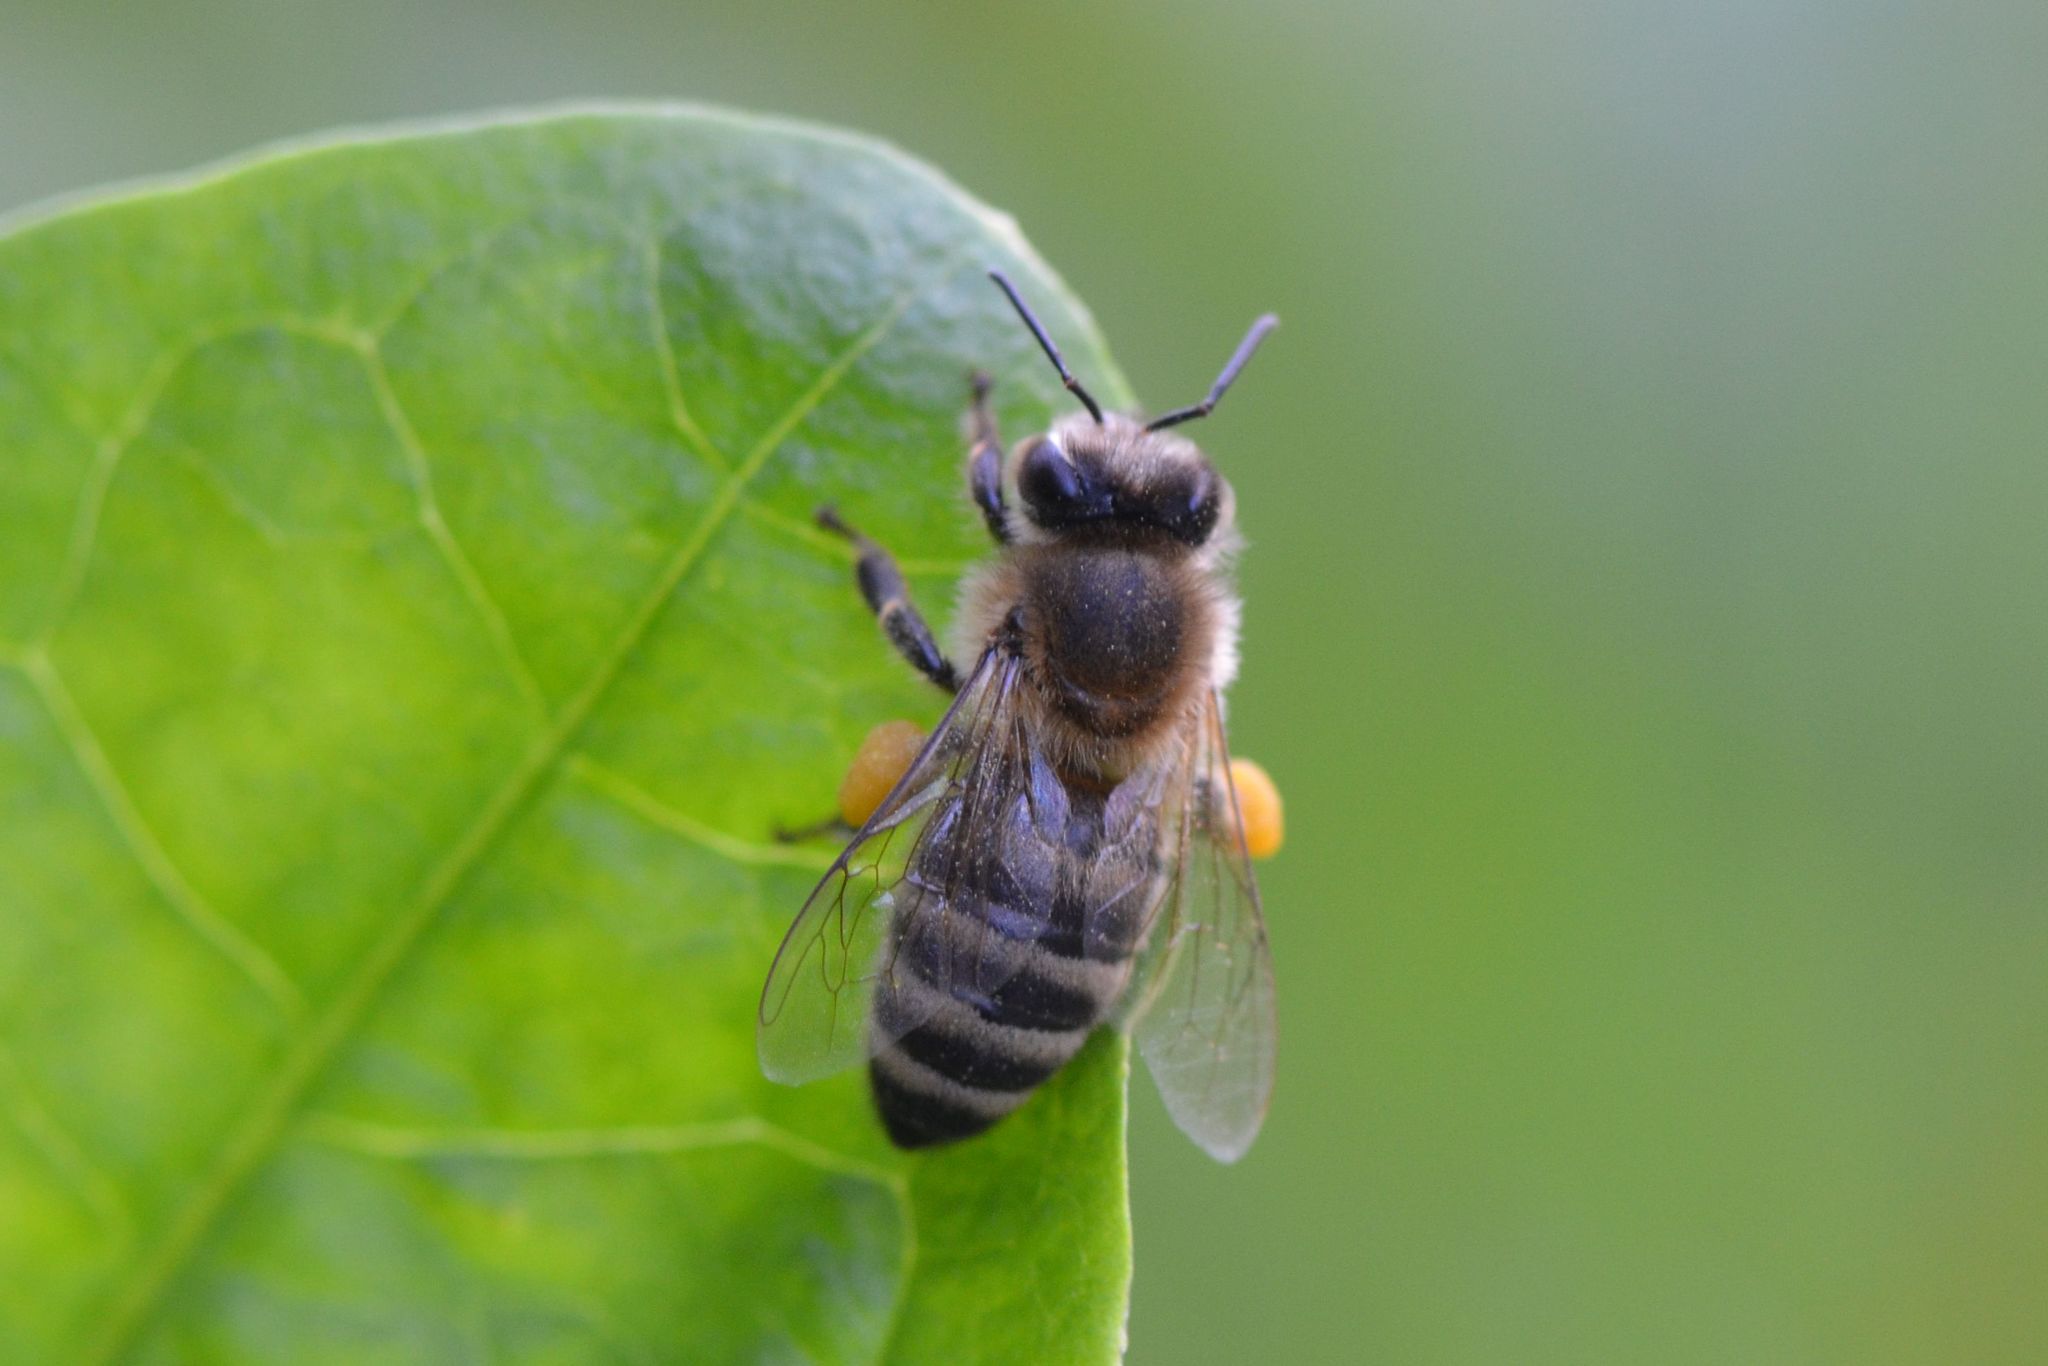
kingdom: Animalia
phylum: Arthropoda
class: Insecta
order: Hymenoptera
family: Apidae
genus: Apis
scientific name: Apis mellifera
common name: Honey bee
